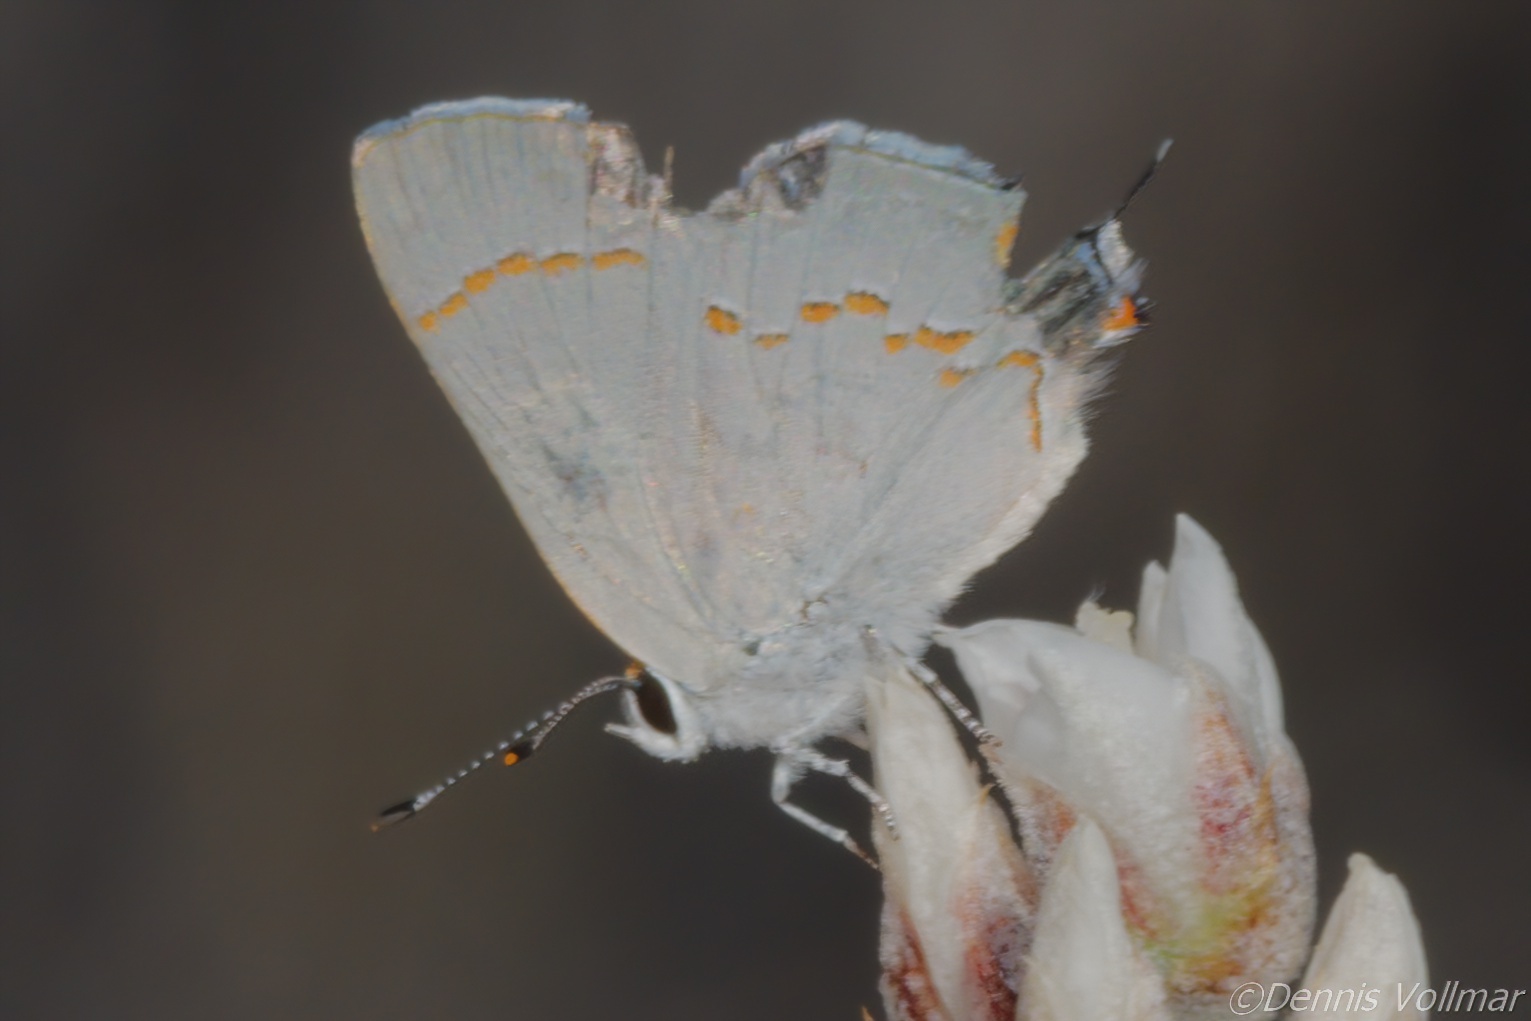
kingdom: Animalia
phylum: Arthropoda
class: Insecta
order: Lepidoptera
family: Lycaenidae
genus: Strymon
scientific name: Strymon
